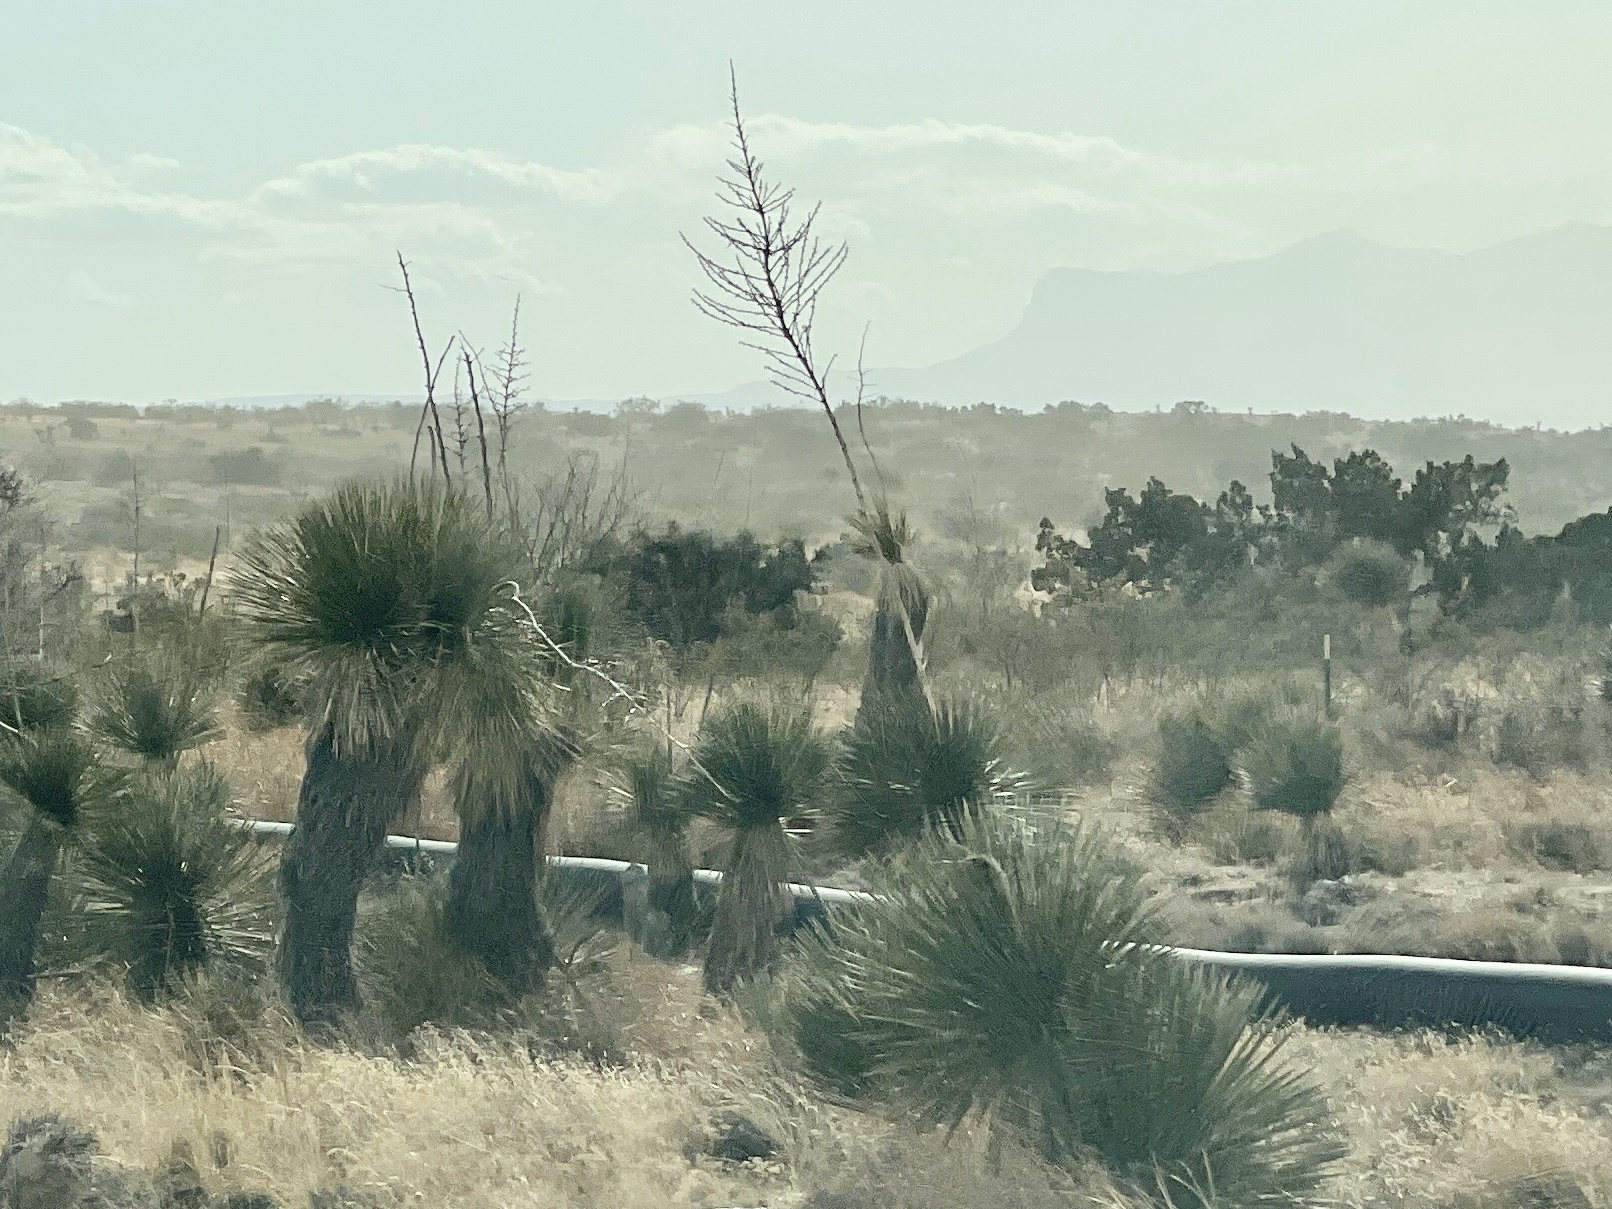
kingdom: Plantae
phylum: Tracheophyta
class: Liliopsida
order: Asparagales
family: Asparagaceae
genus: Yucca
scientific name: Yucca elata
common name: Palmella
